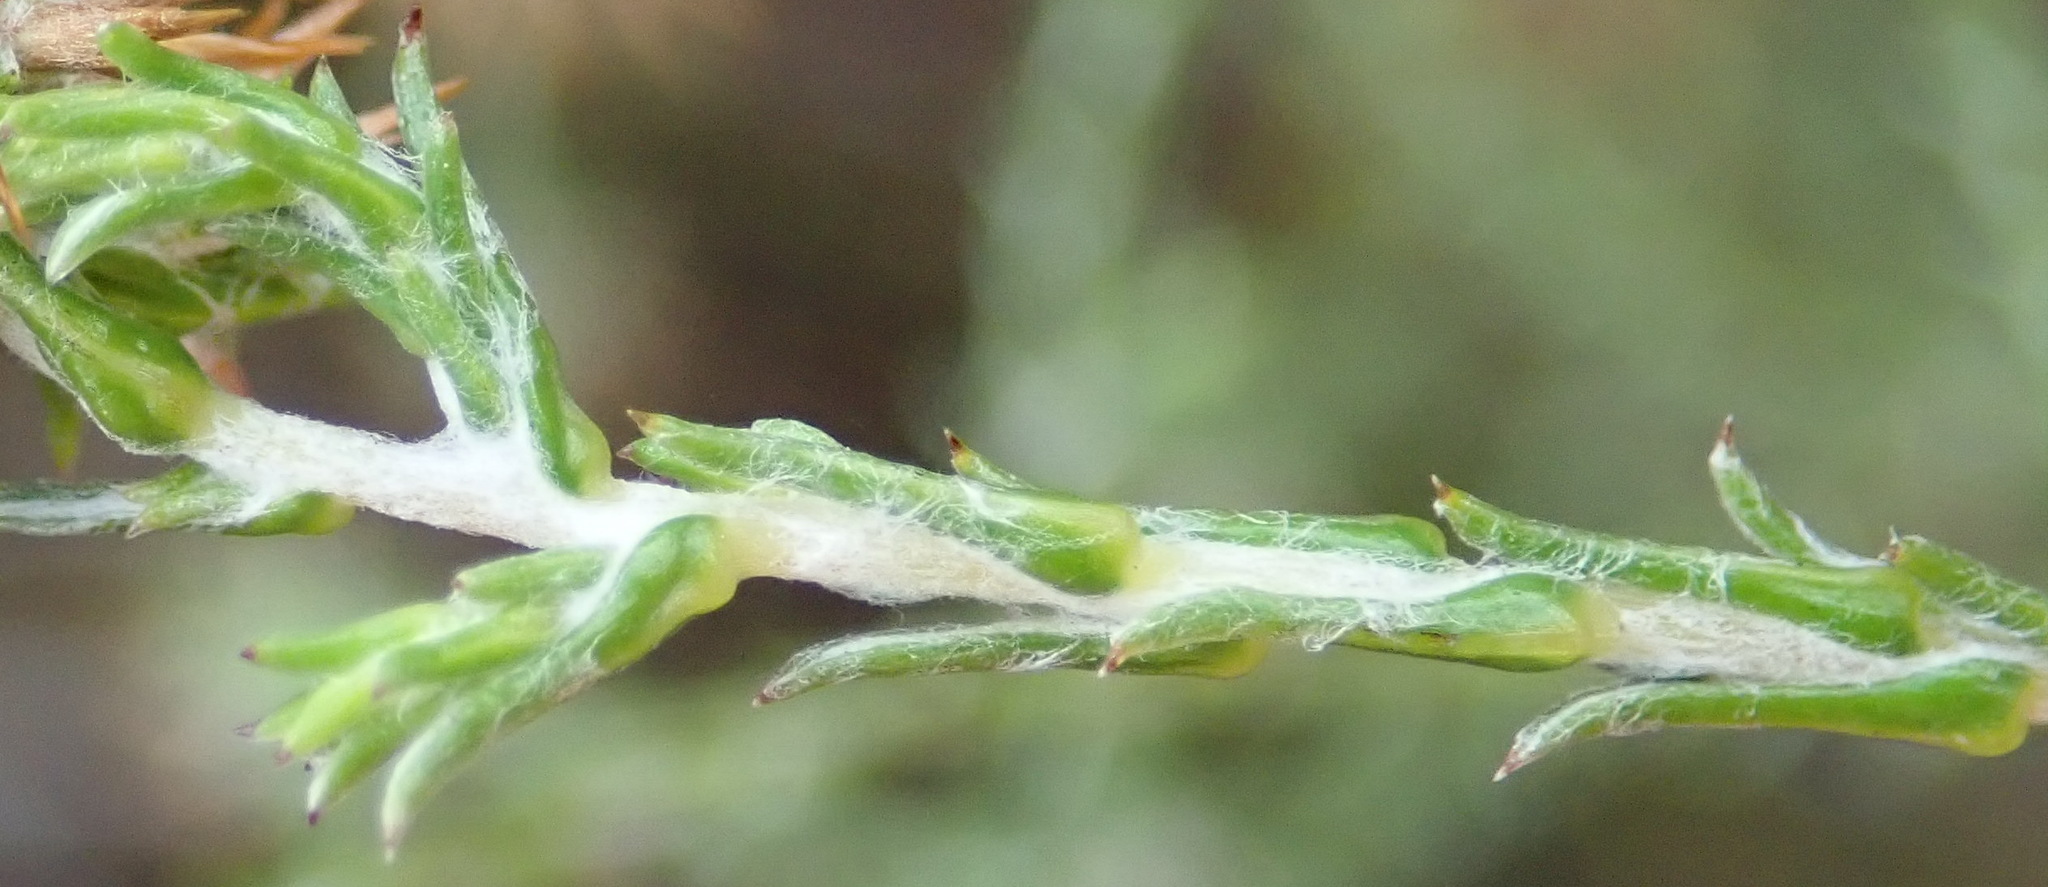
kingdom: Plantae
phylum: Tracheophyta
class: Magnoliopsida
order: Asterales
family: Asteraceae
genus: Seriphium
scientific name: Seriphium incanum
